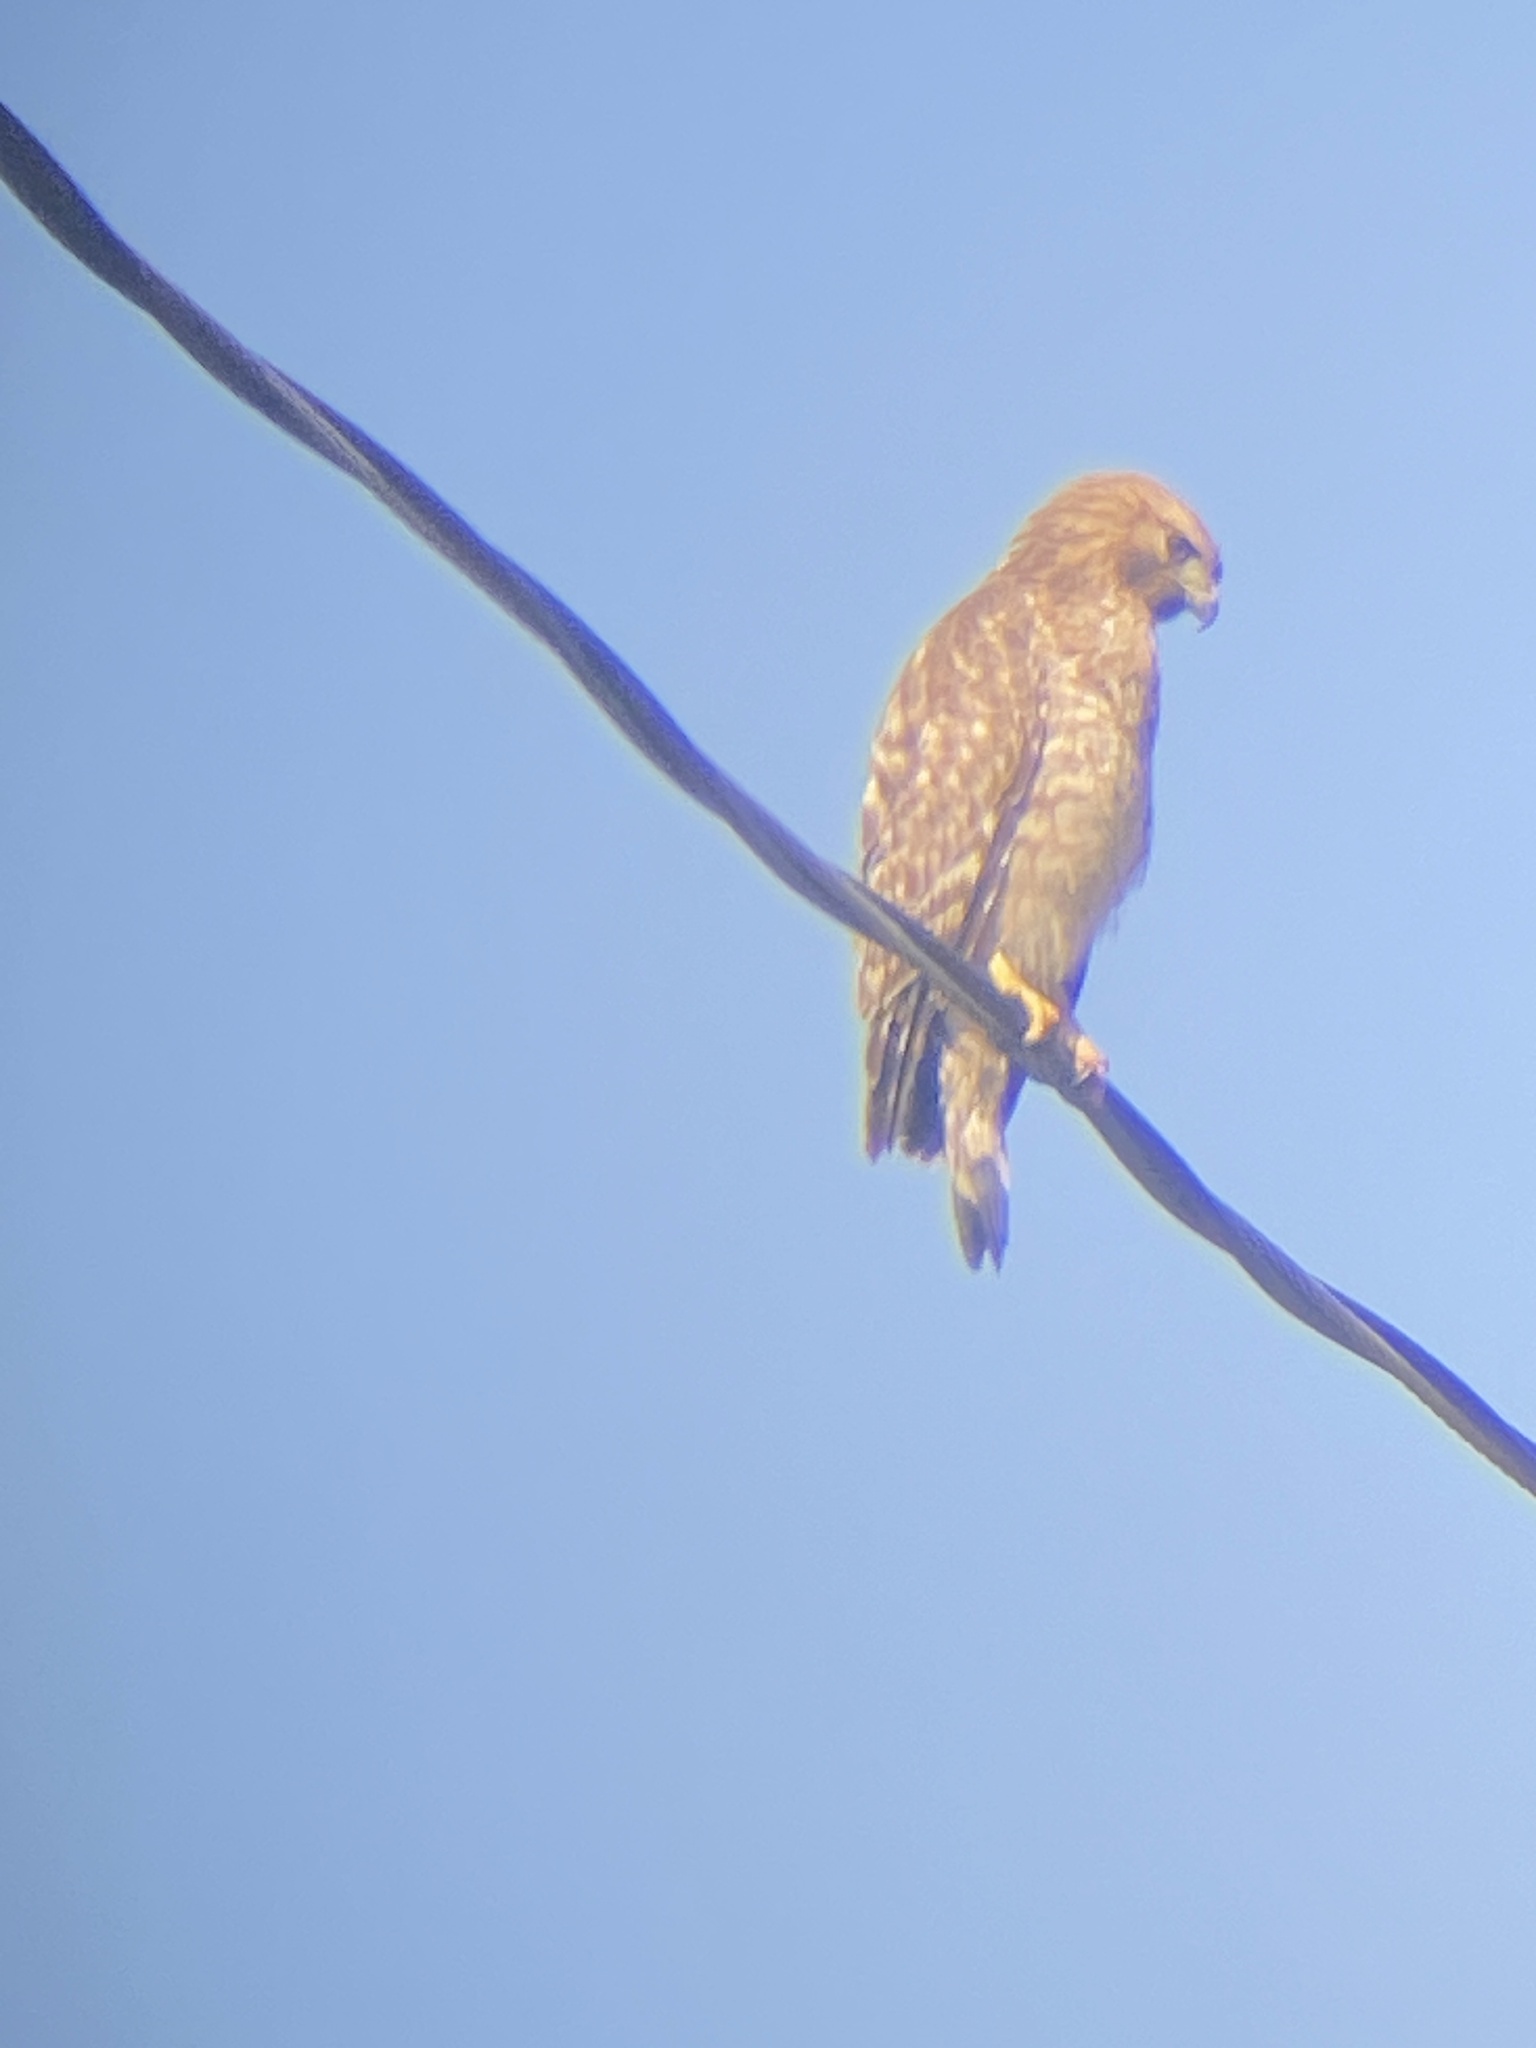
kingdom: Animalia
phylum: Chordata
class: Aves
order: Accipitriformes
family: Accipitridae
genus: Buteo
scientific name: Buteo lineatus
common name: Red-shouldered hawk
